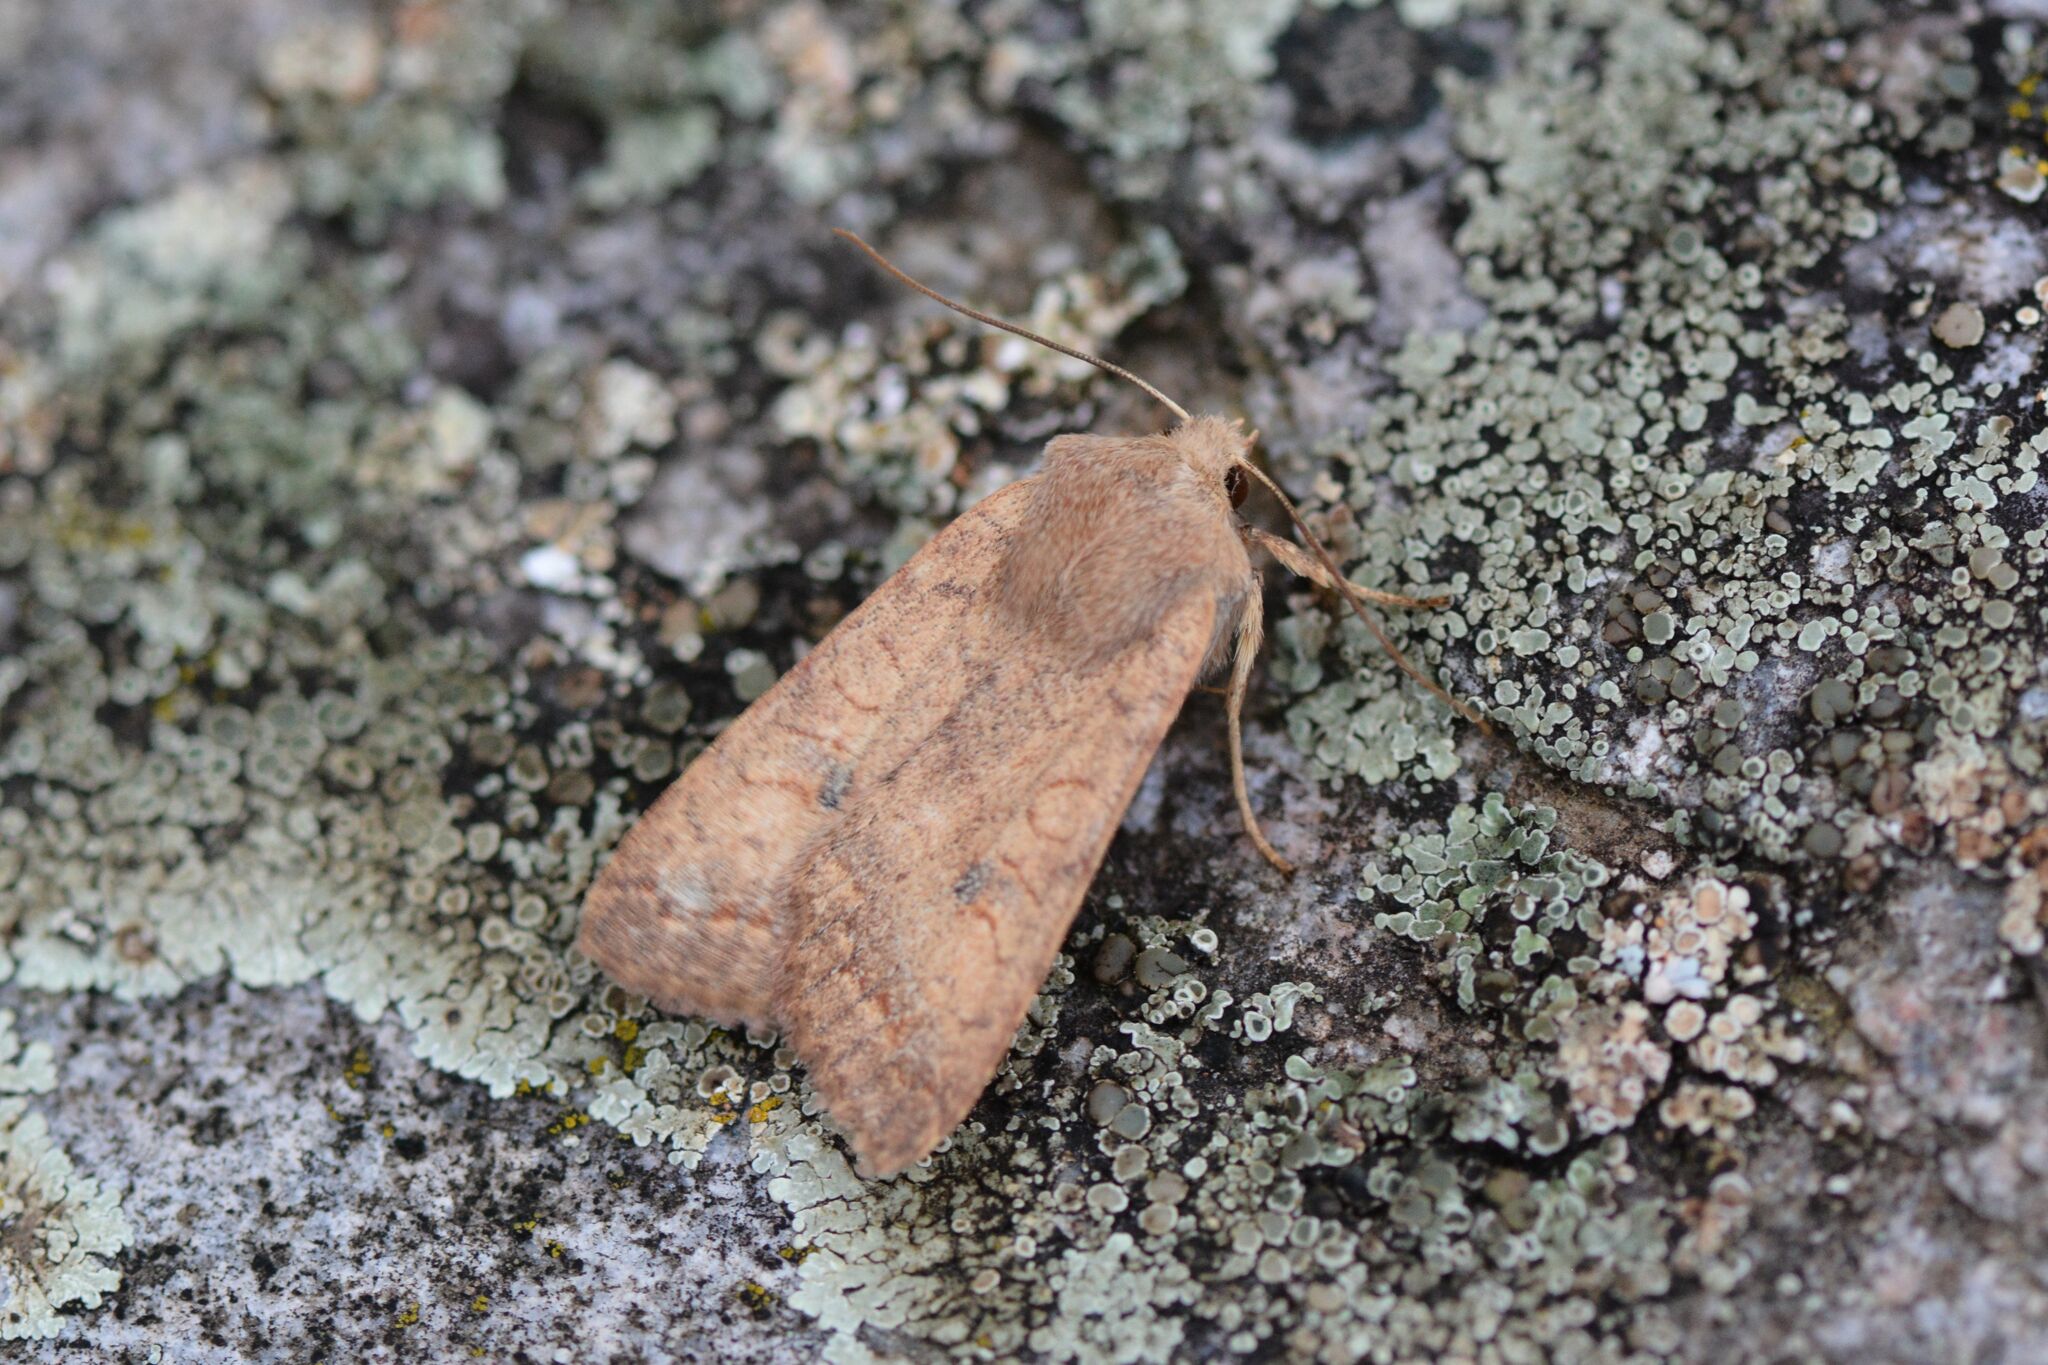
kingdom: Animalia
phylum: Arthropoda
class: Insecta
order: Lepidoptera
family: Noctuidae
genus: Sunira
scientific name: Sunira circellaris
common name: Brick
